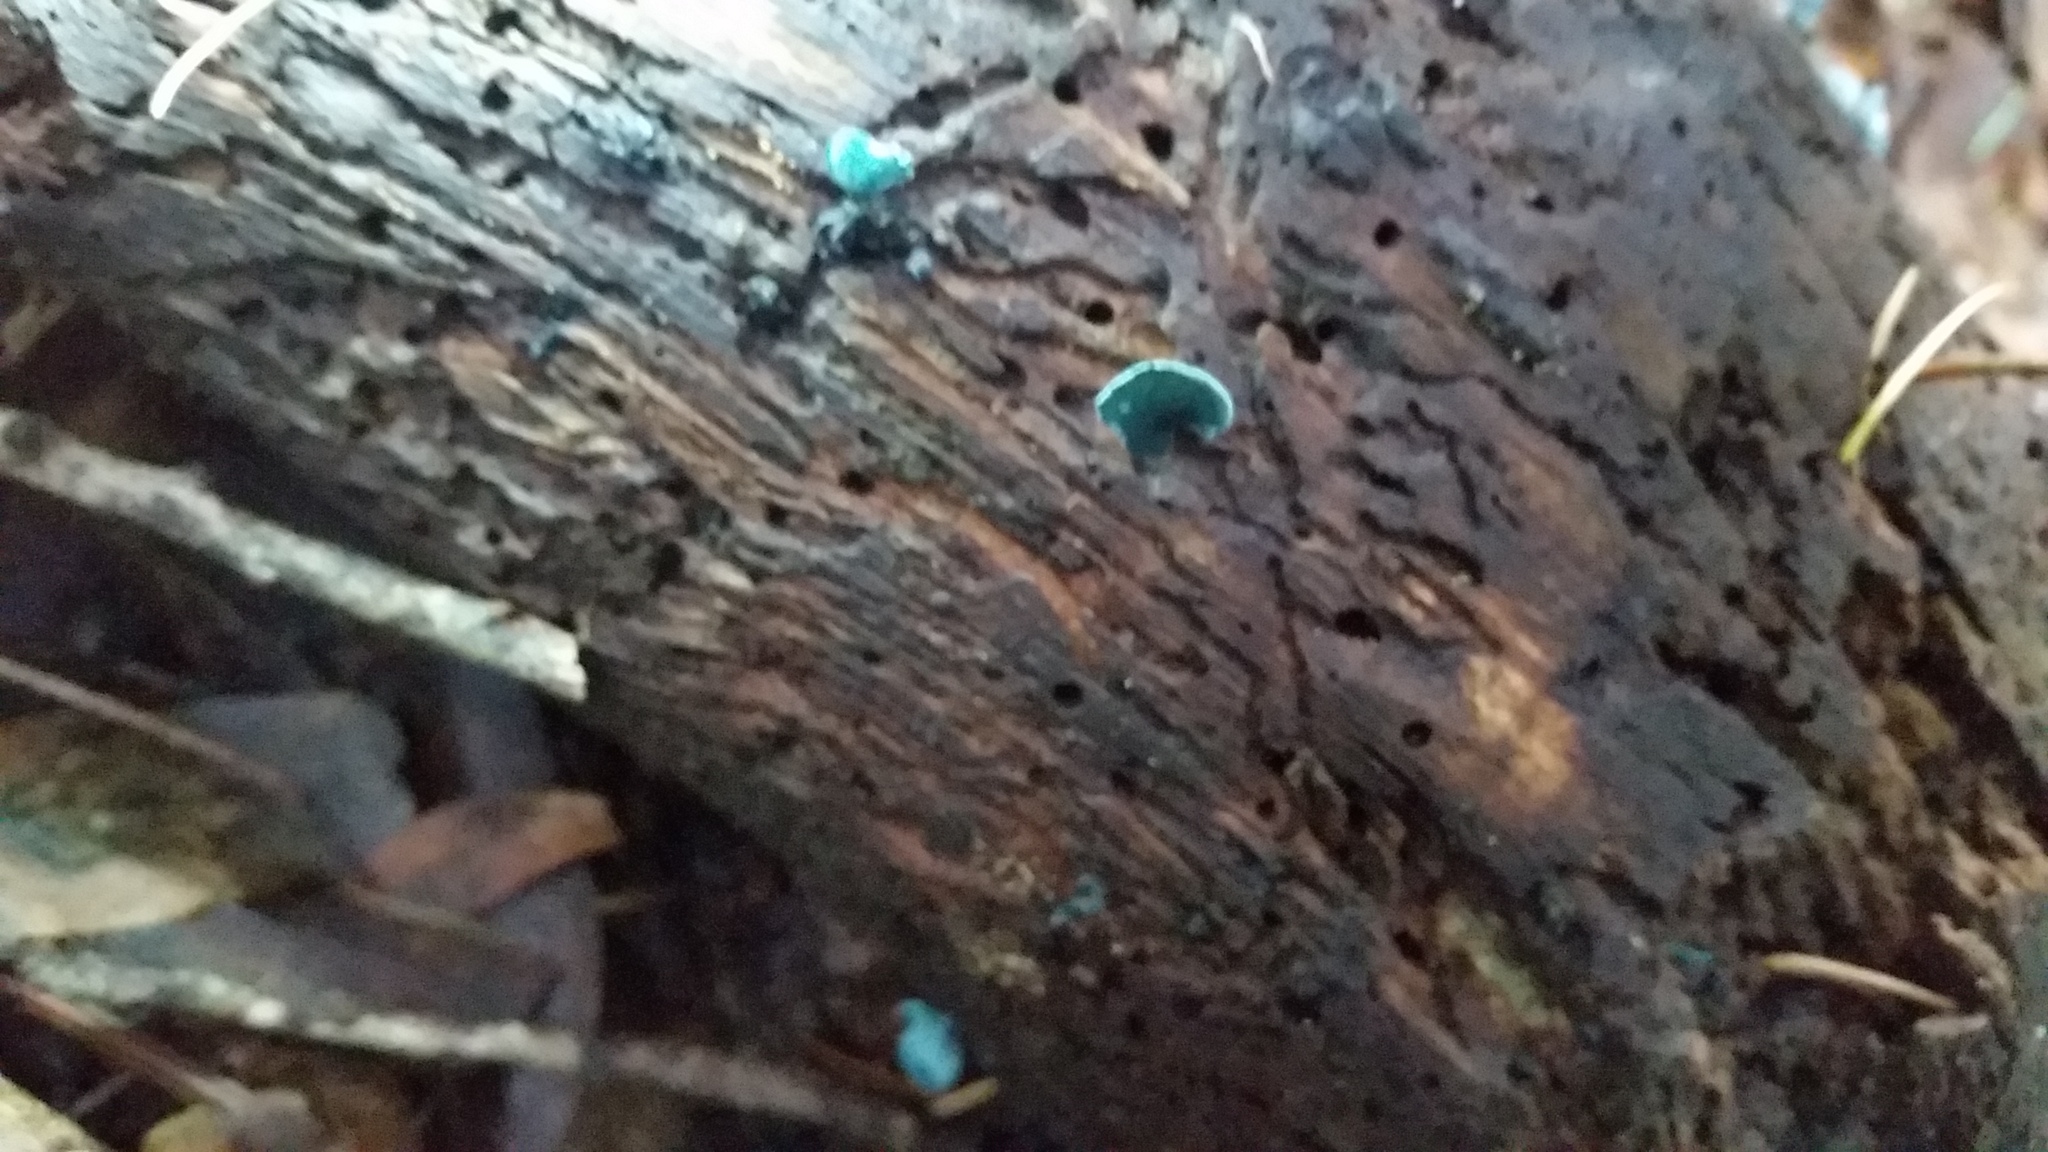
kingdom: Fungi
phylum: Ascomycota
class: Leotiomycetes
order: Helotiales
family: Chlorociboriaceae
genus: Chlorociboria
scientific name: Chlorociboria aeruginascens
